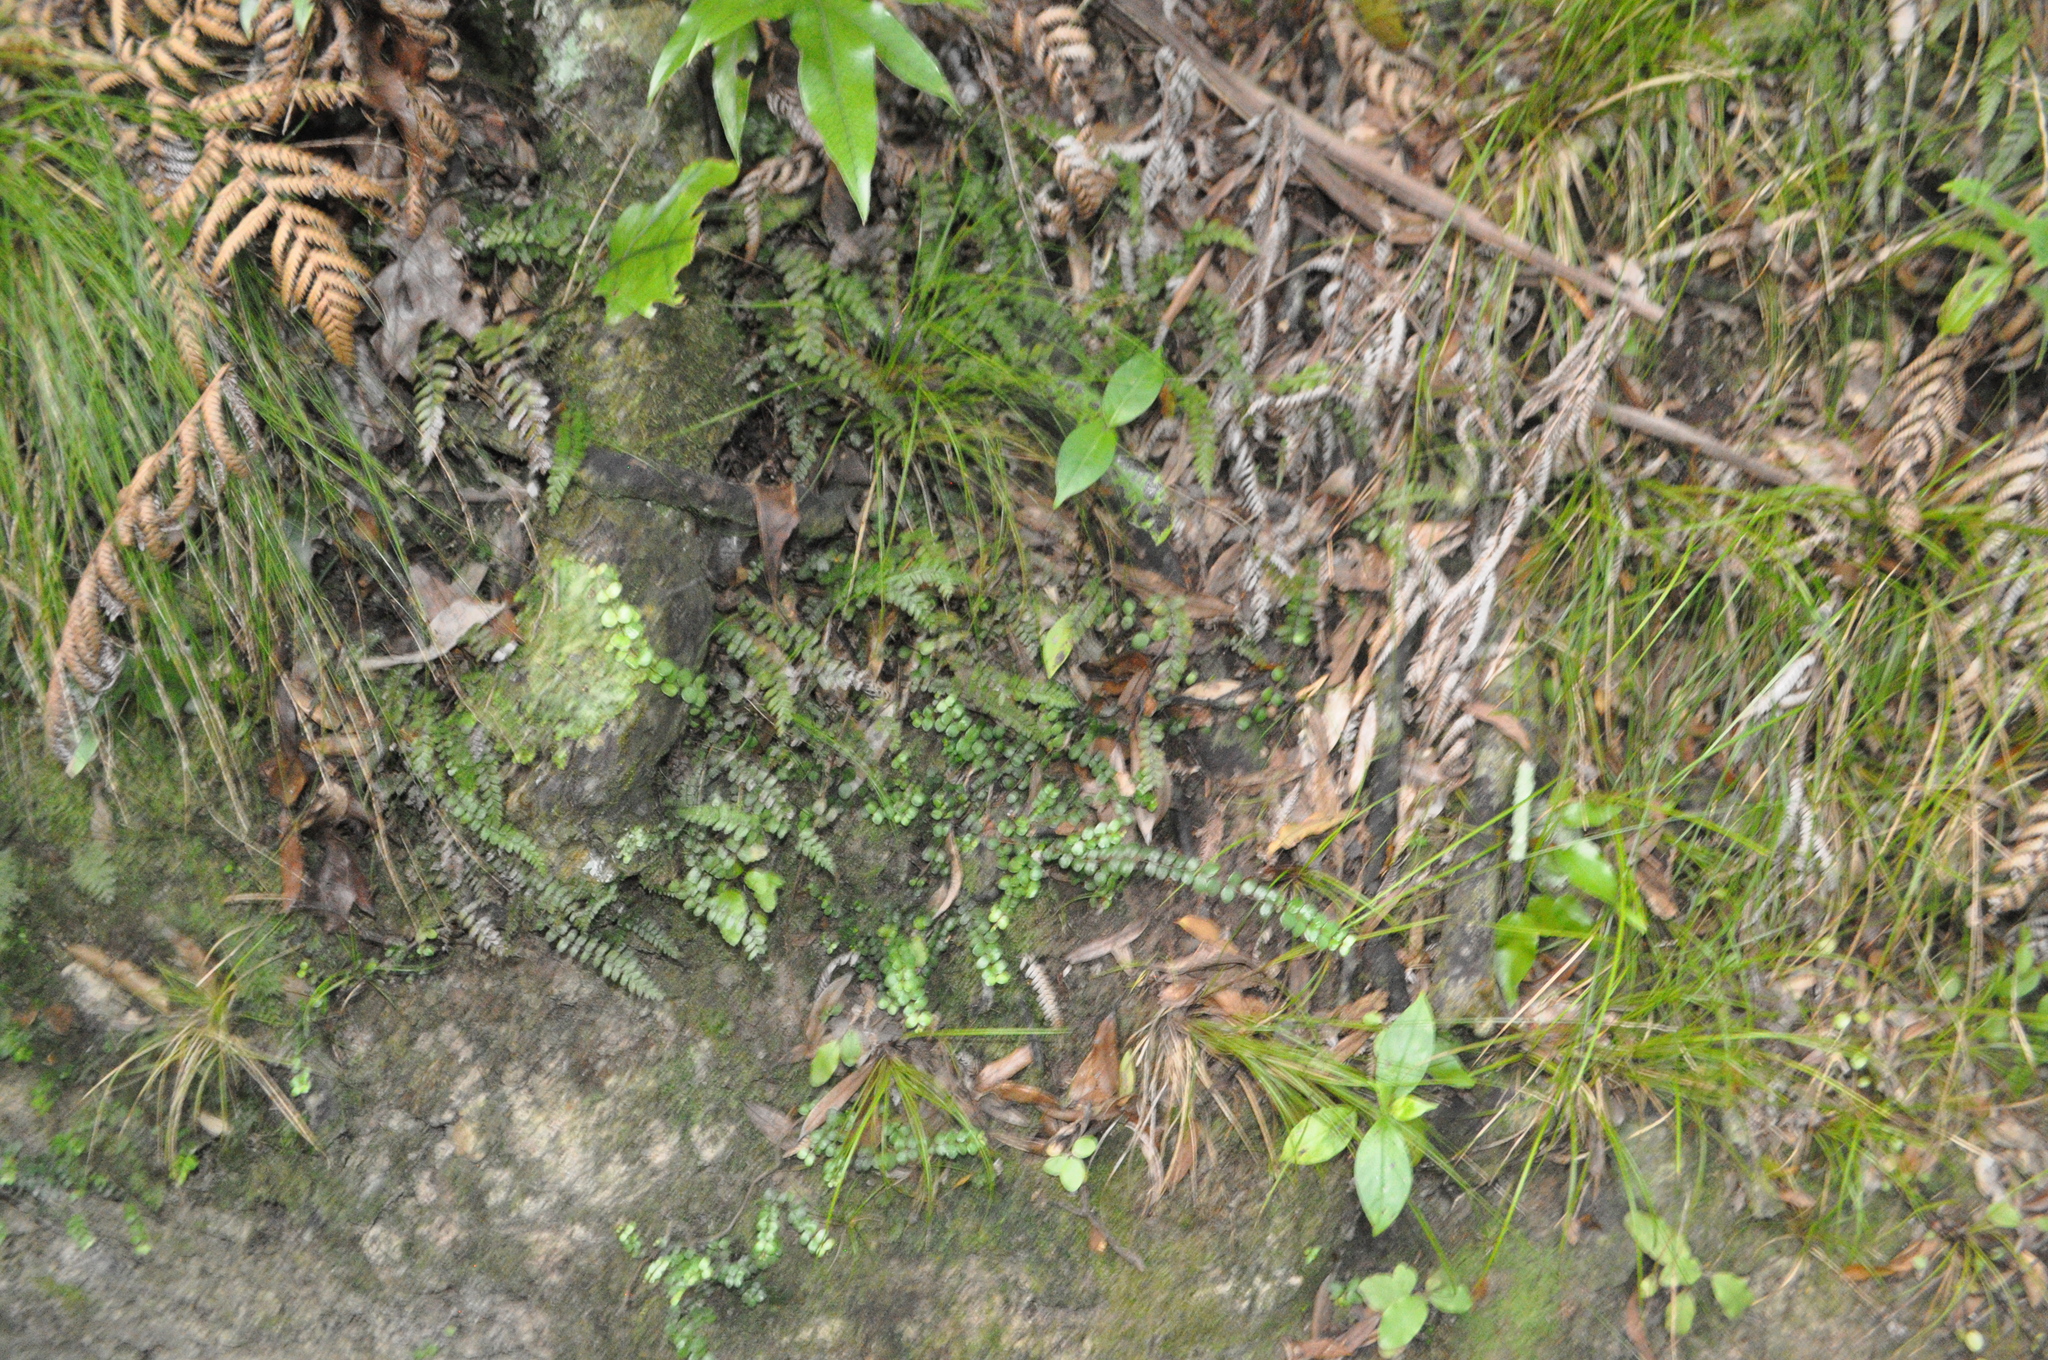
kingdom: Plantae
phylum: Tracheophyta
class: Polypodiopsida
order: Polypodiales
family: Blechnaceae
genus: Icarus
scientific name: Icarus filiformis
